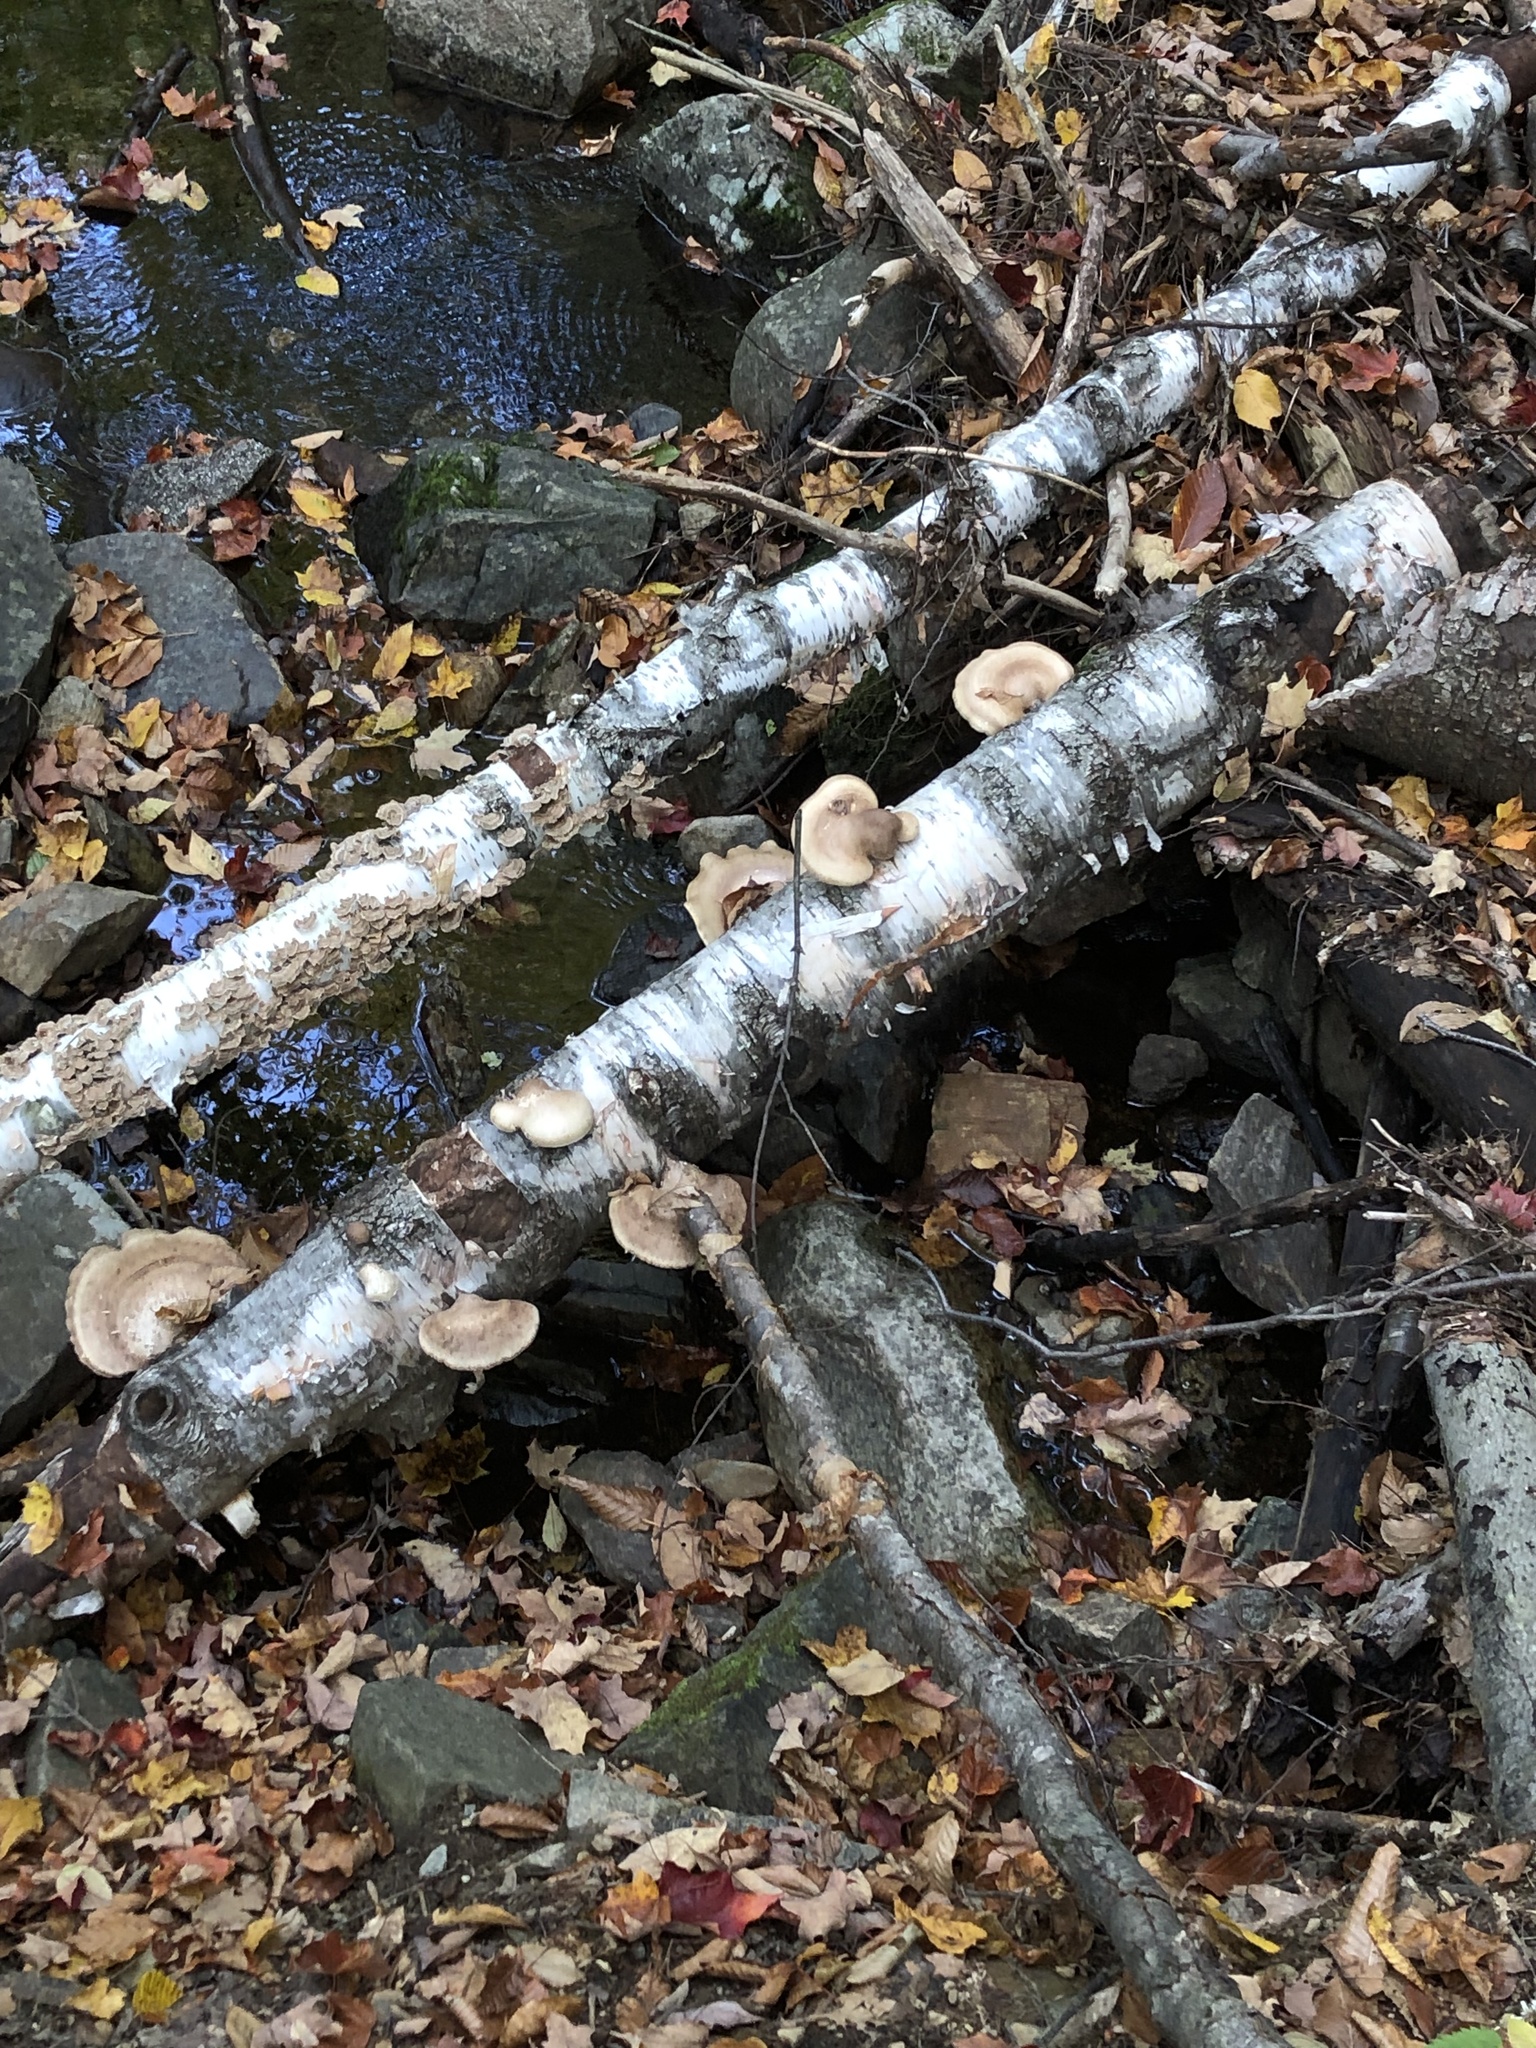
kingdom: Fungi
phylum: Basidiomycota
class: Agaricomycetes
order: Polyporales
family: Fomitopsidaceae
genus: Fomitopsis
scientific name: Fomitopsis betulina
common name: Birch polypore
